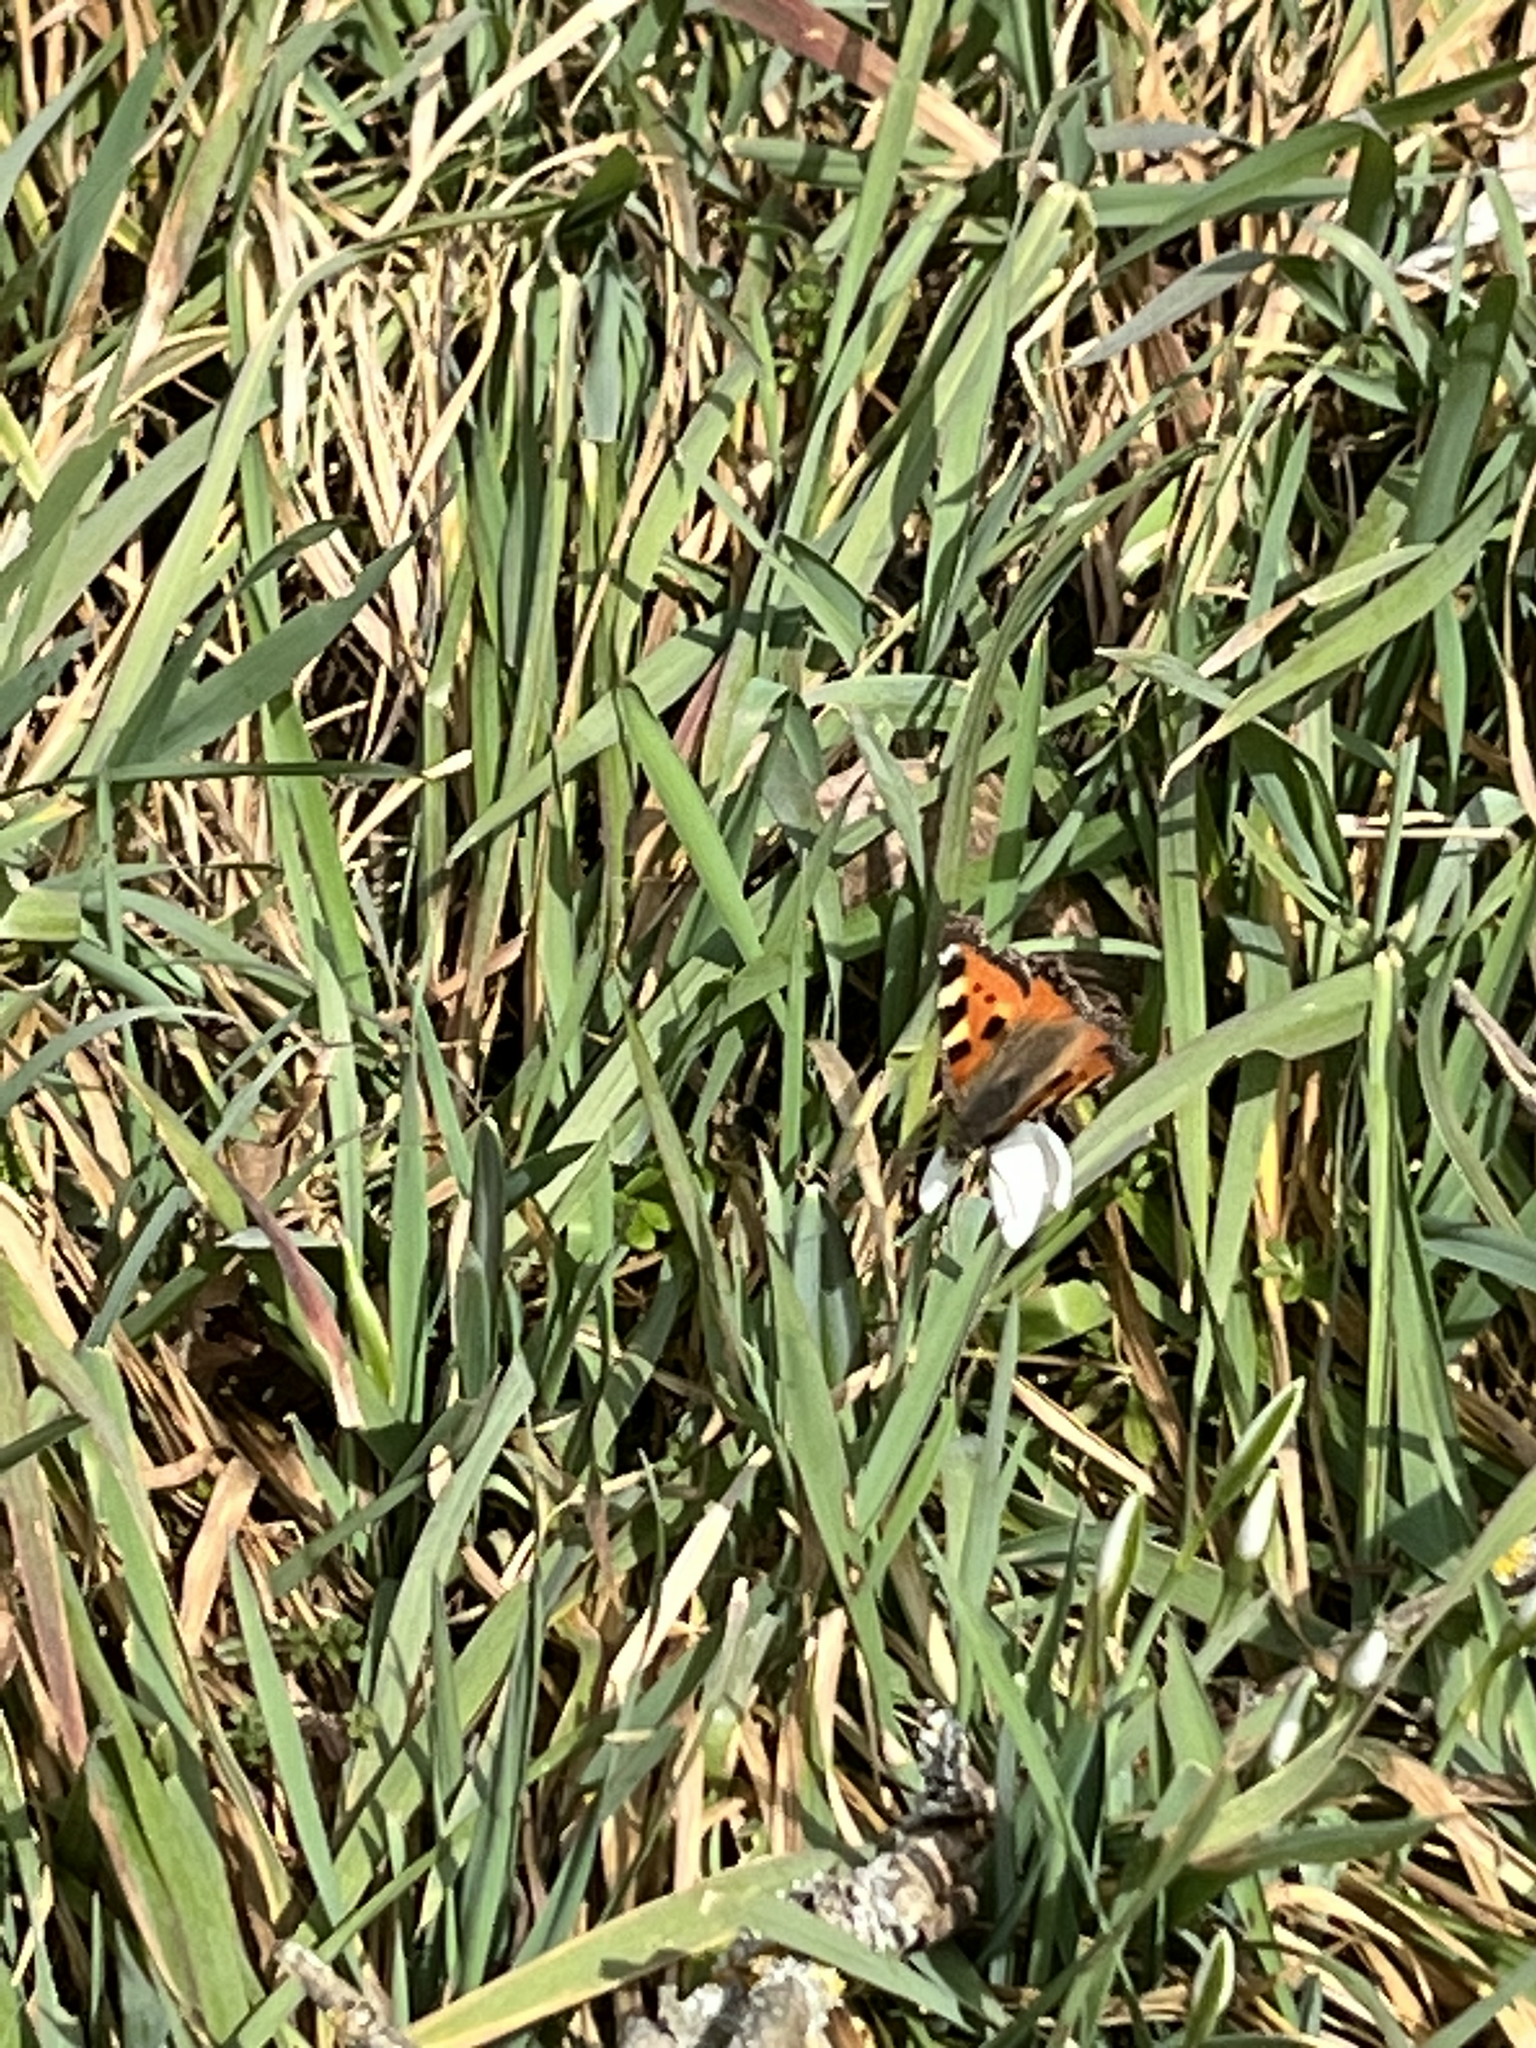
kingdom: Animalia
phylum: Arthropoda
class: Insecta
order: Lepidoptera
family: Nymphalidae
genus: Aglais
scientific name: Aglais urticae
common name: Small tortoiseshell
